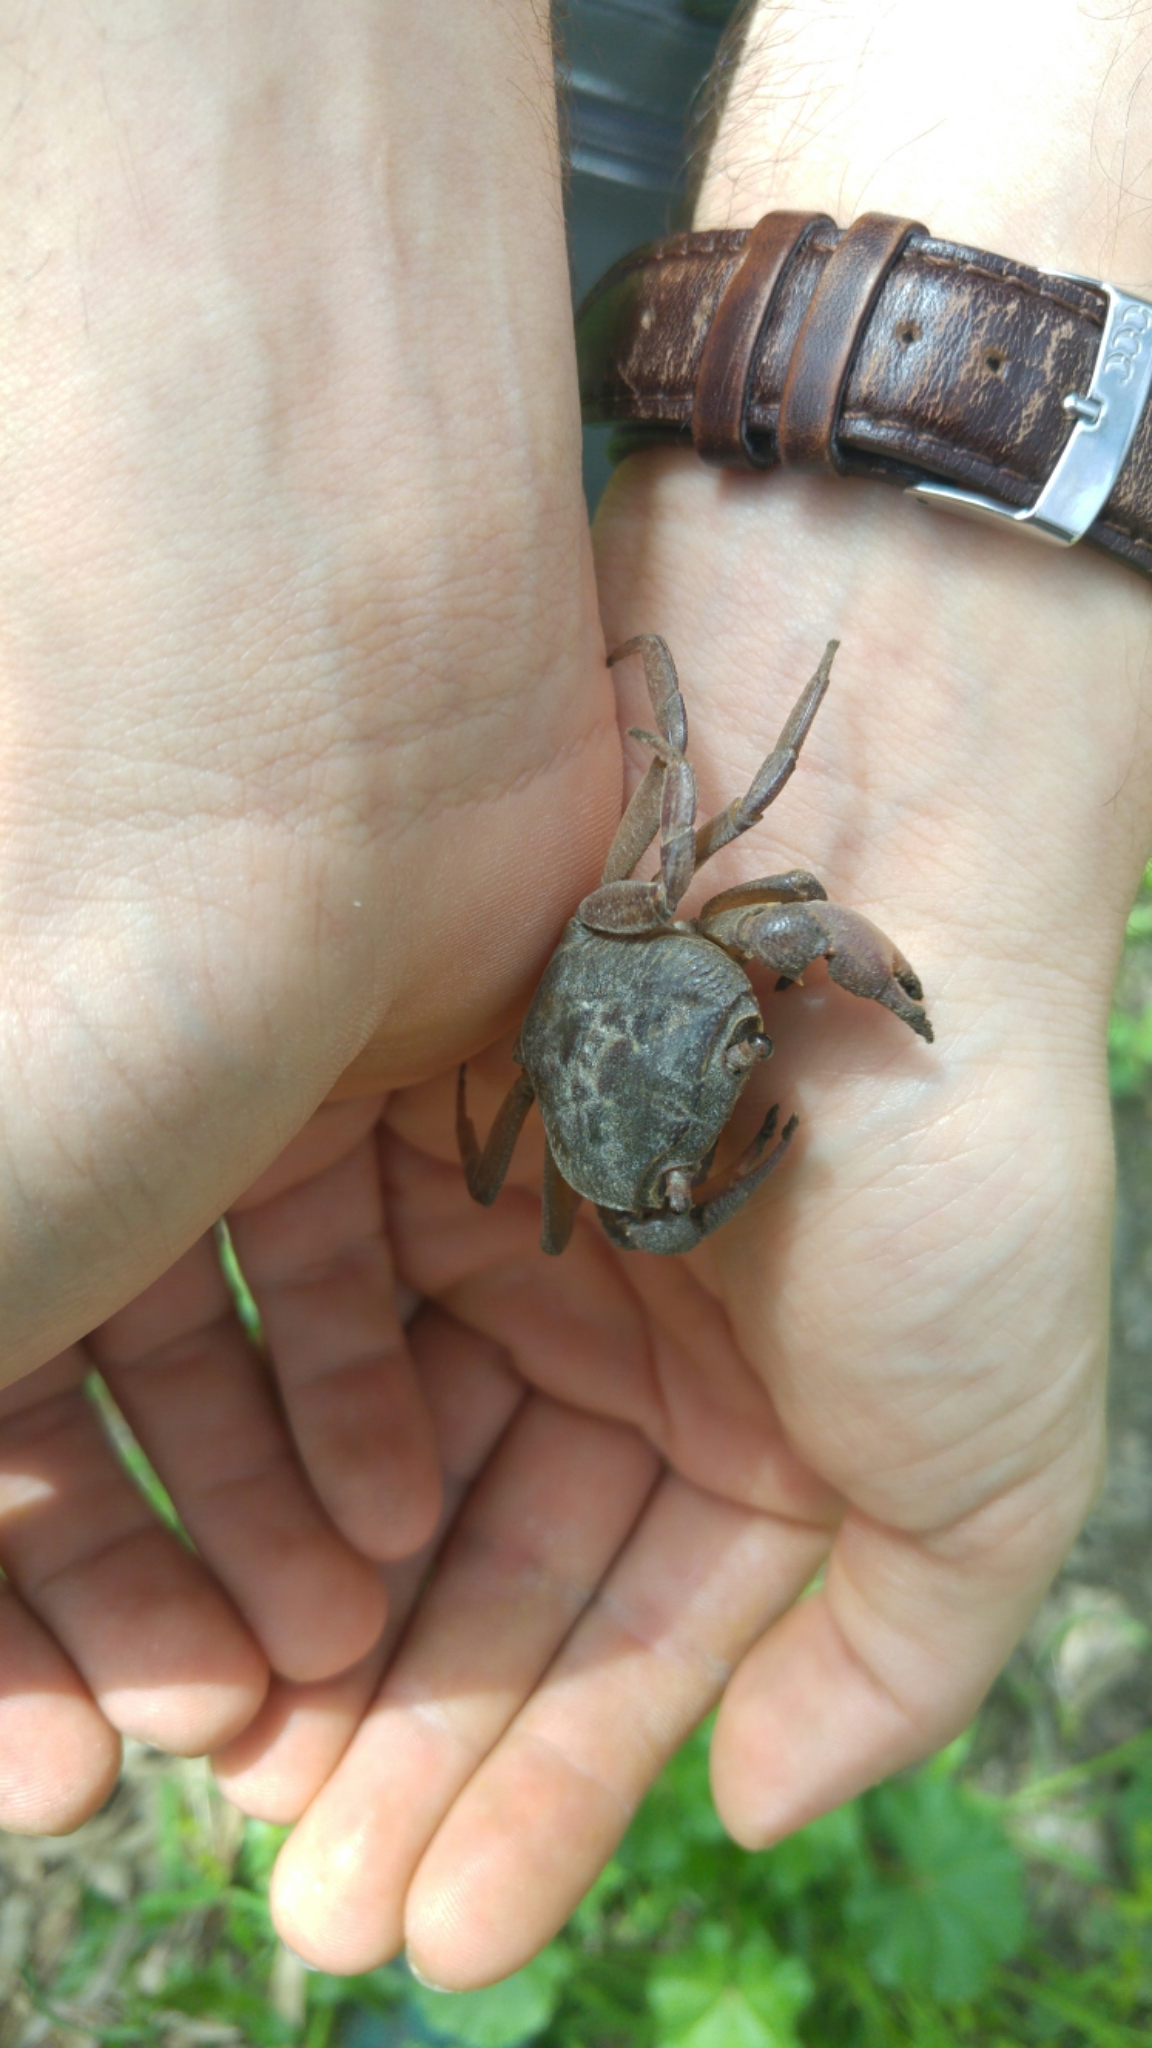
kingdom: Animalia
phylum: Arthropoda
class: Malacostraca
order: Decapoda
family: Potamidae
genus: Potamon
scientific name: Potamon potamios
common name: Aegean freshwater crab
